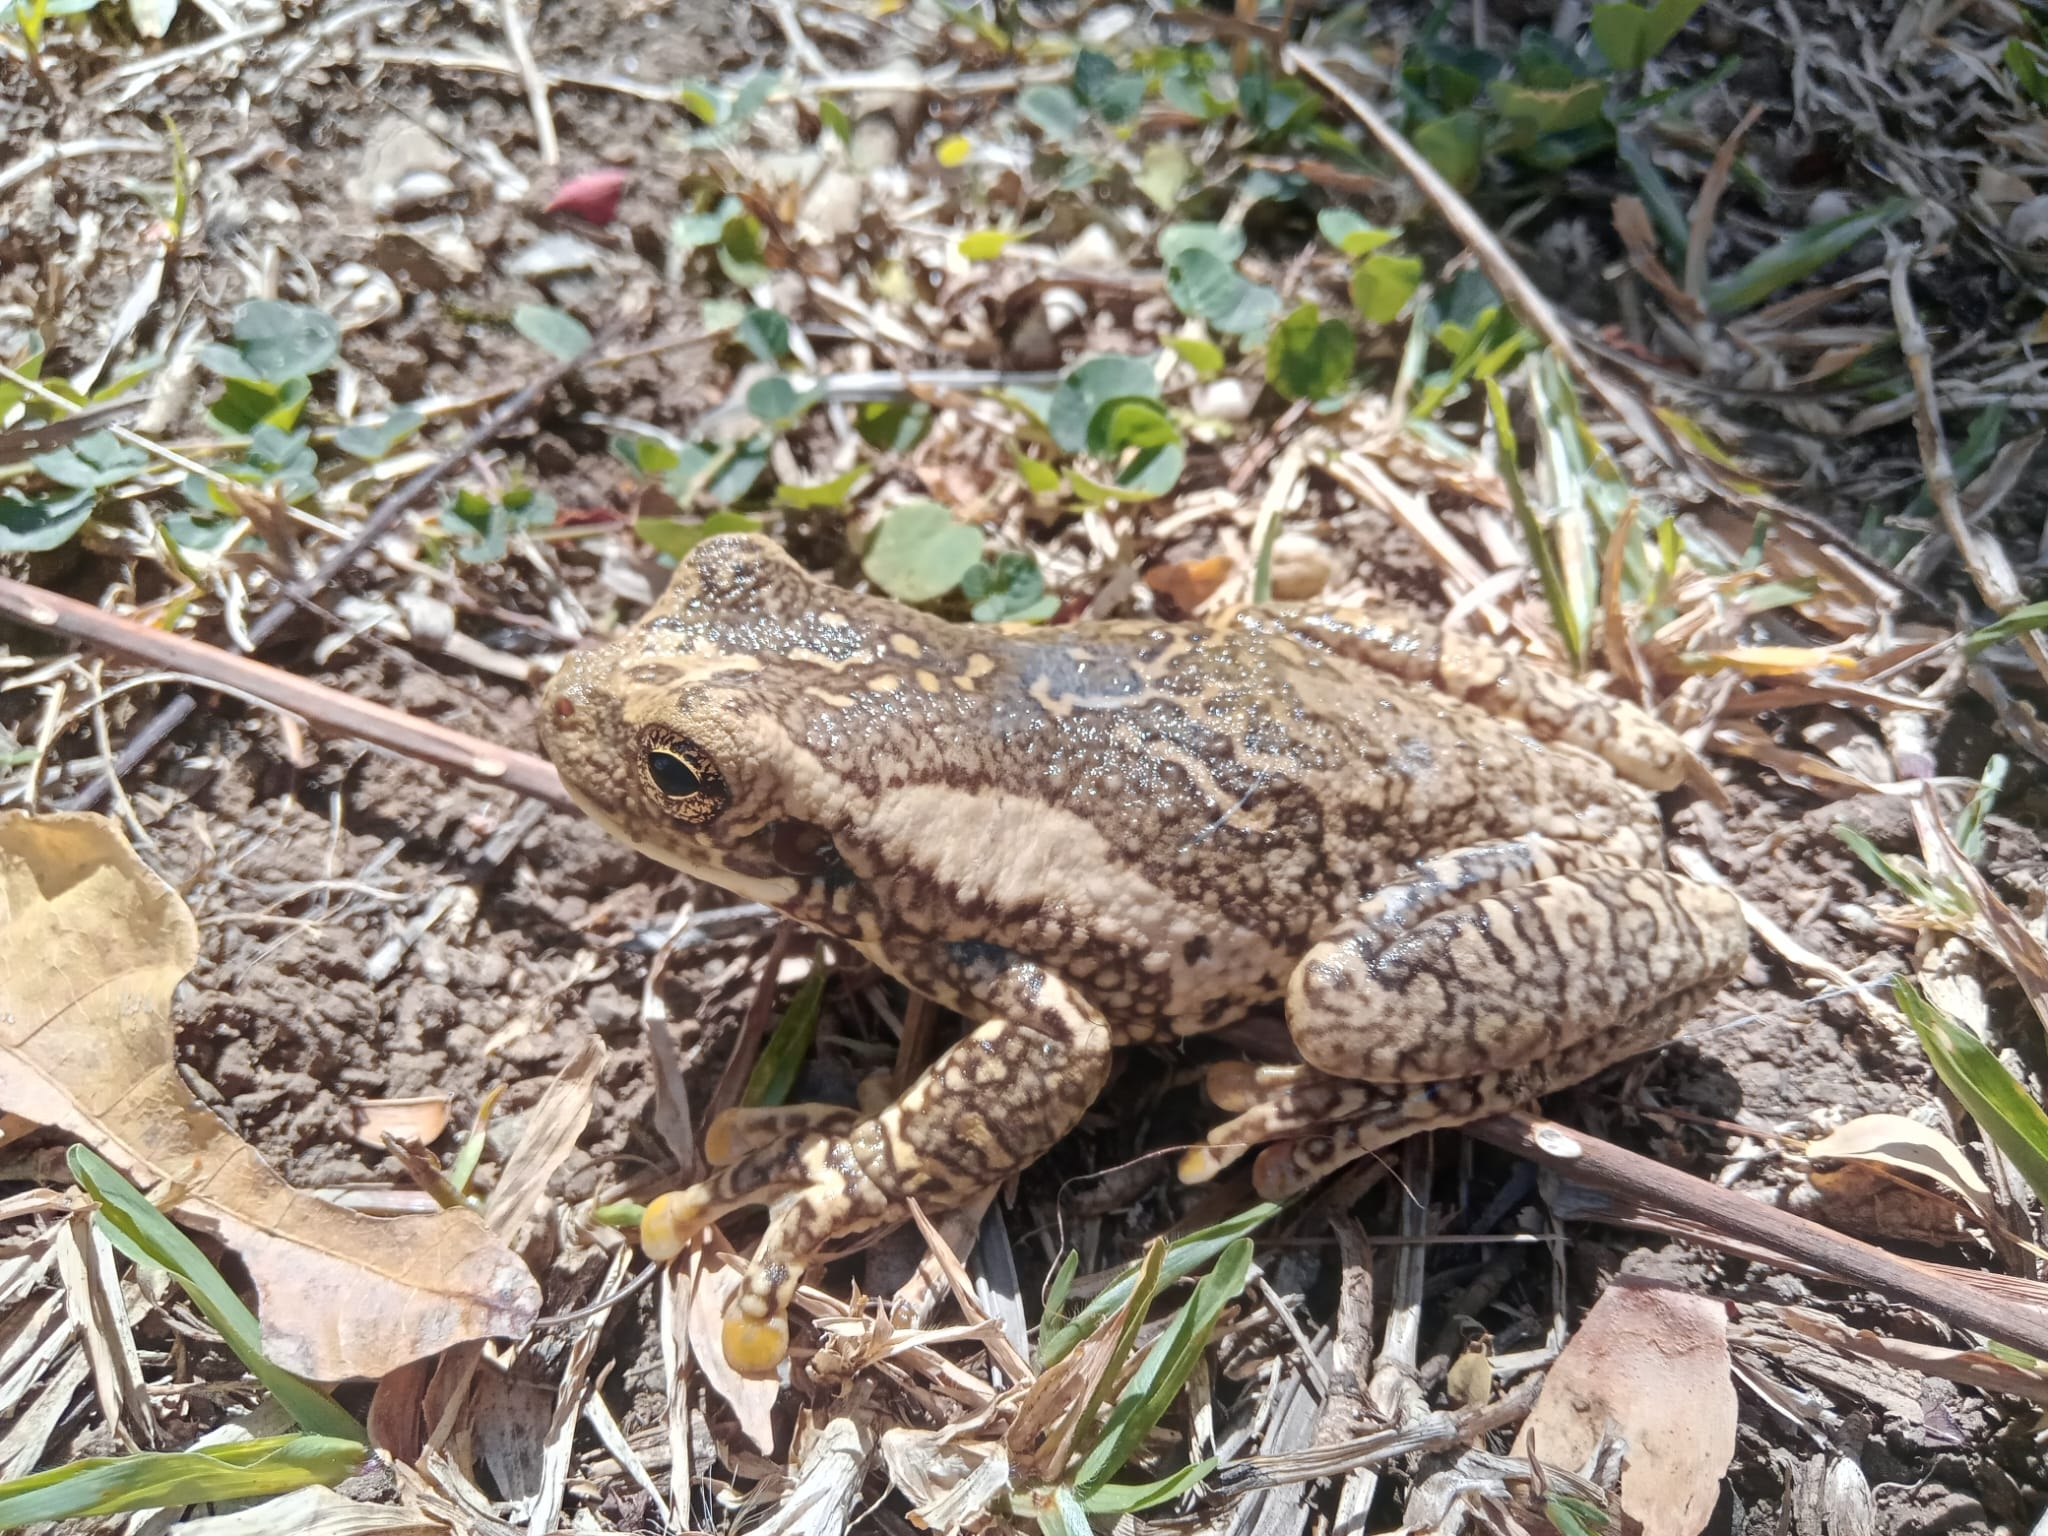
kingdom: Animalia
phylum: Chordata
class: Amphibia
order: Anura
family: Hylidae
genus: Trachycephalus
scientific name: Trachycephalus typhonius
